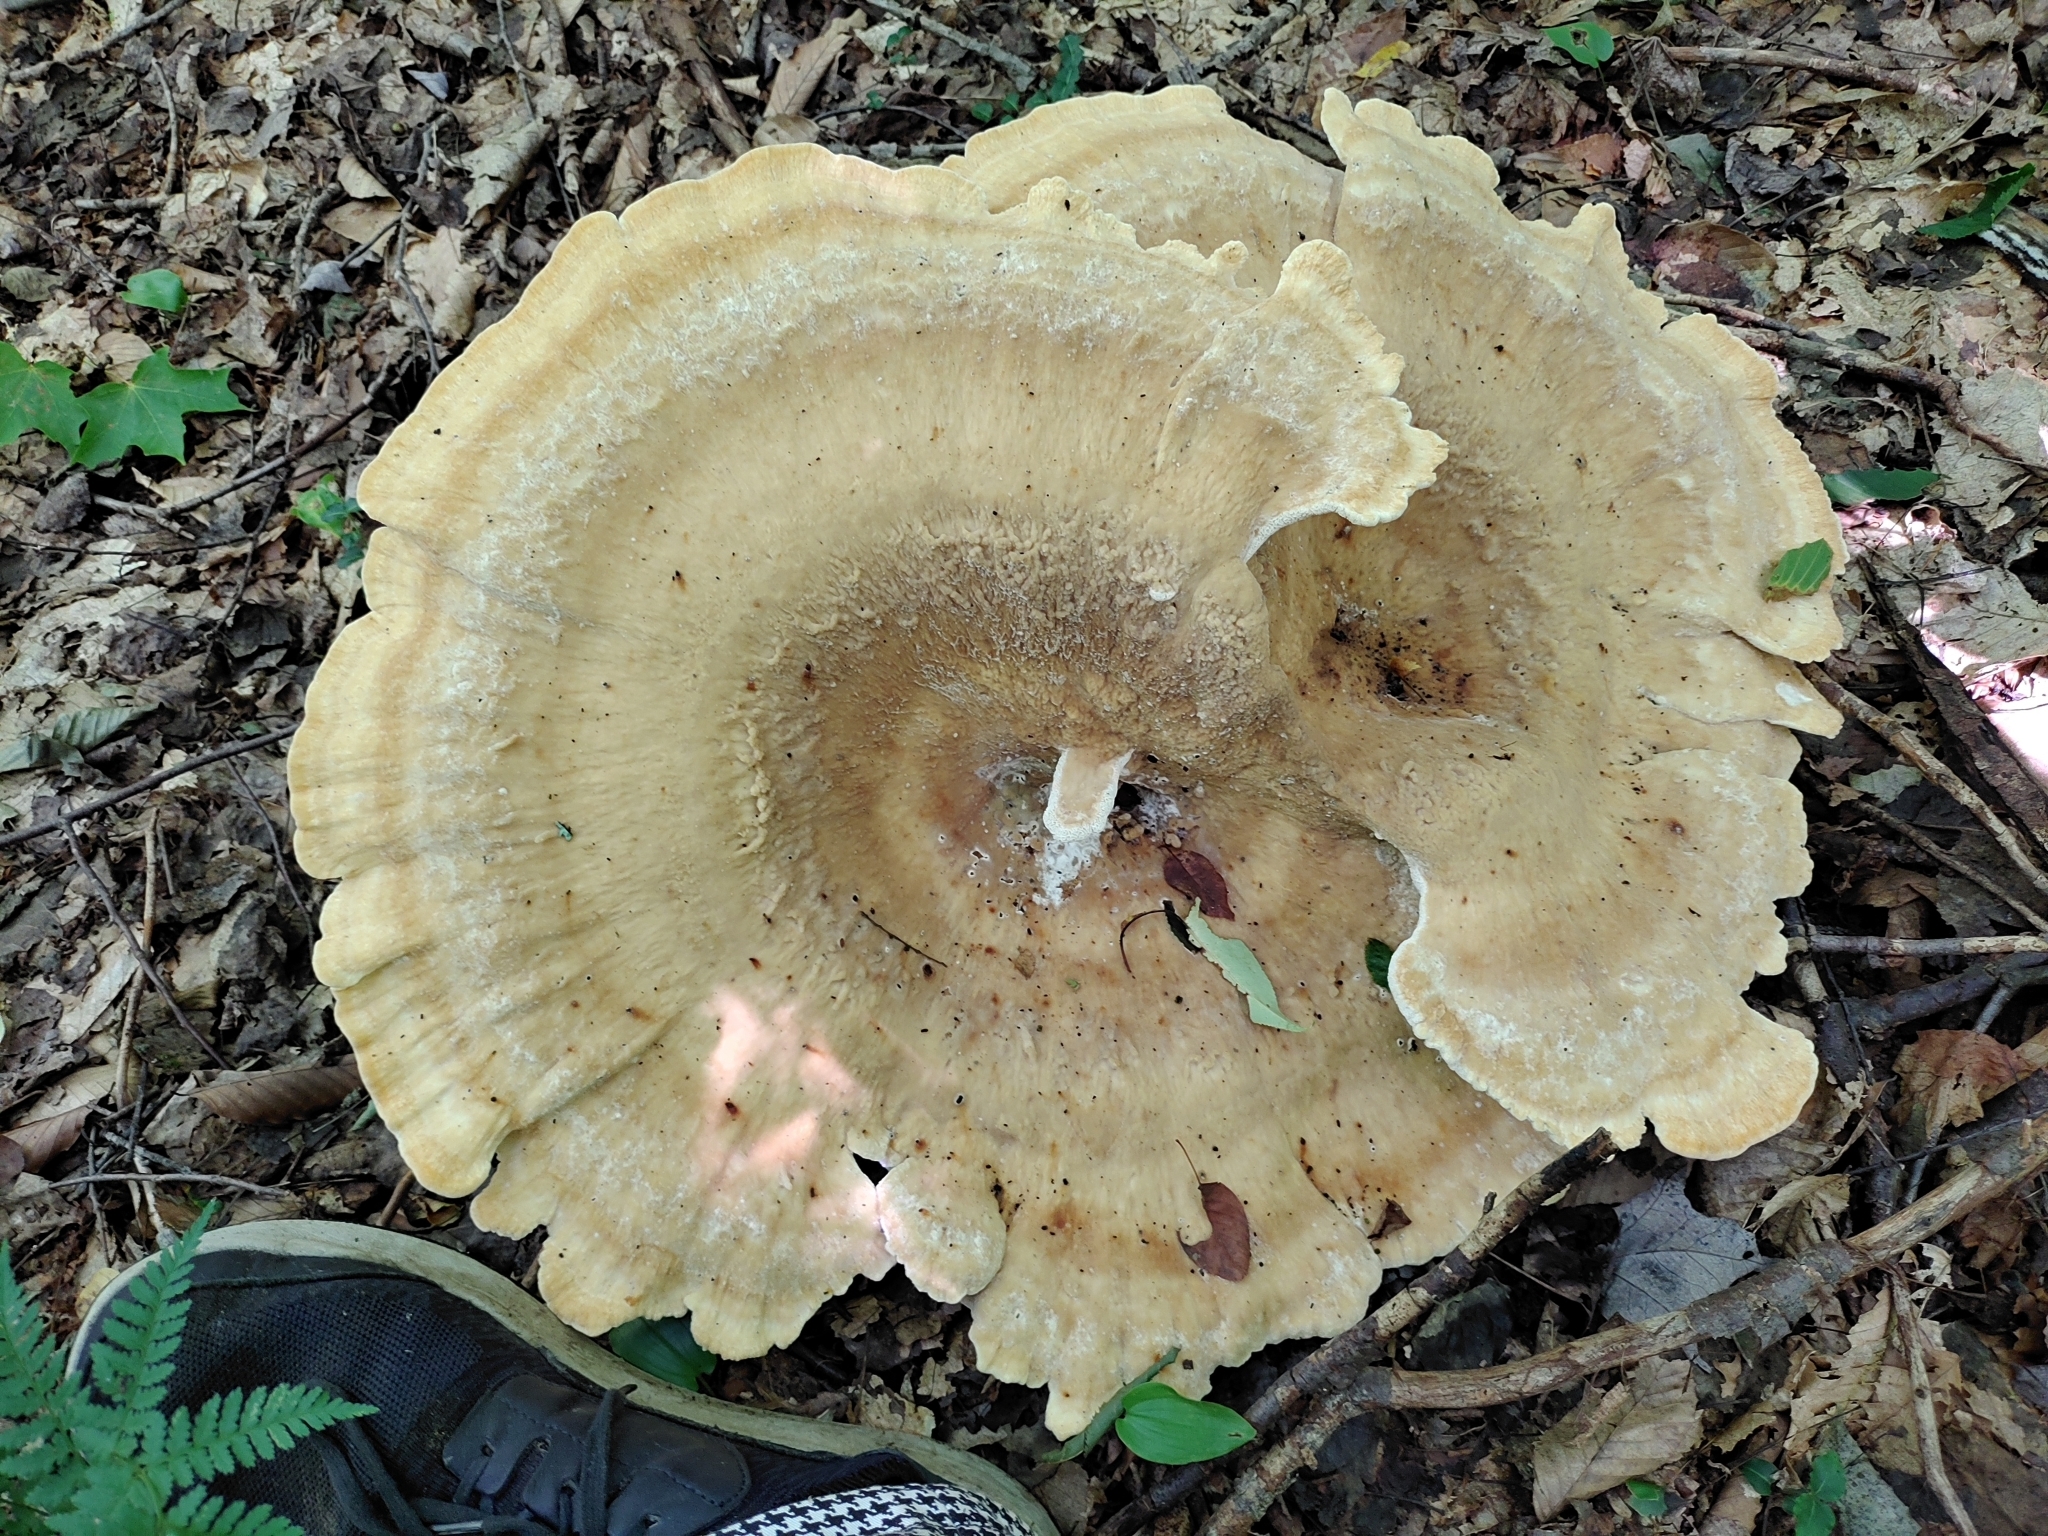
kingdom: Fungi
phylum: Basidiomycota
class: Agaricomycetes
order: Russulales
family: Bondarzewiaceae
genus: Bondarzewia
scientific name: Bondarzewia berkeleyi
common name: Berkeley's polypore
